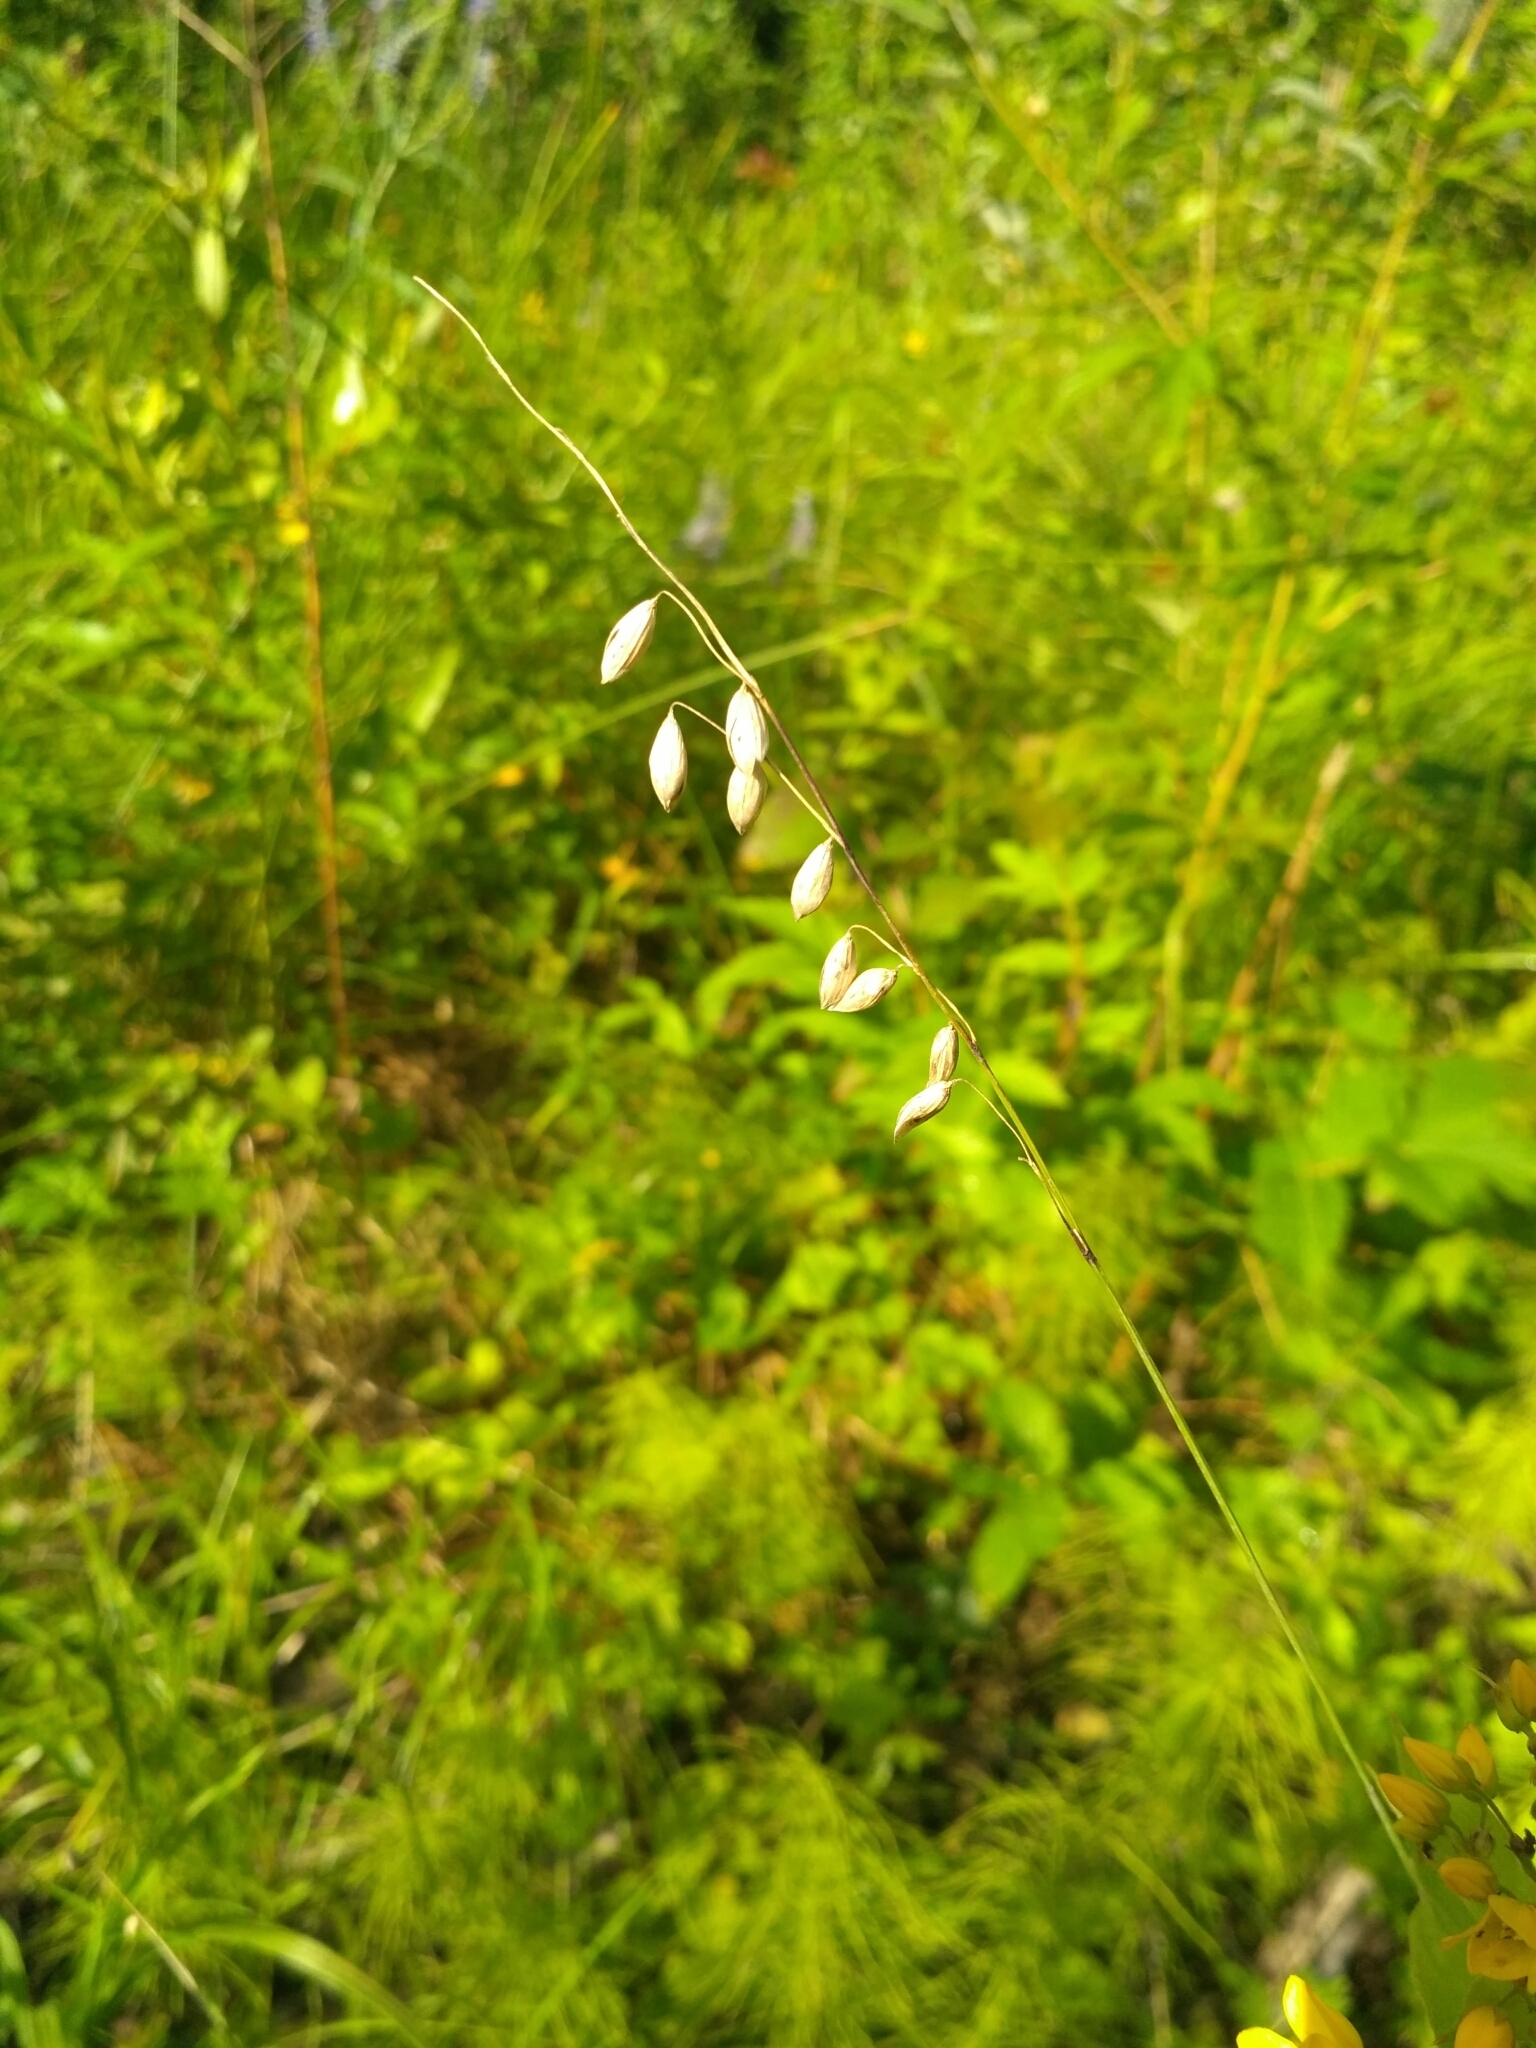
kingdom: Plantae
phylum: Tracheophyta
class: Liliopsida
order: Poales
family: Poaceae
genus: Melica
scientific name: Melica nutans
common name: Mountain melick
